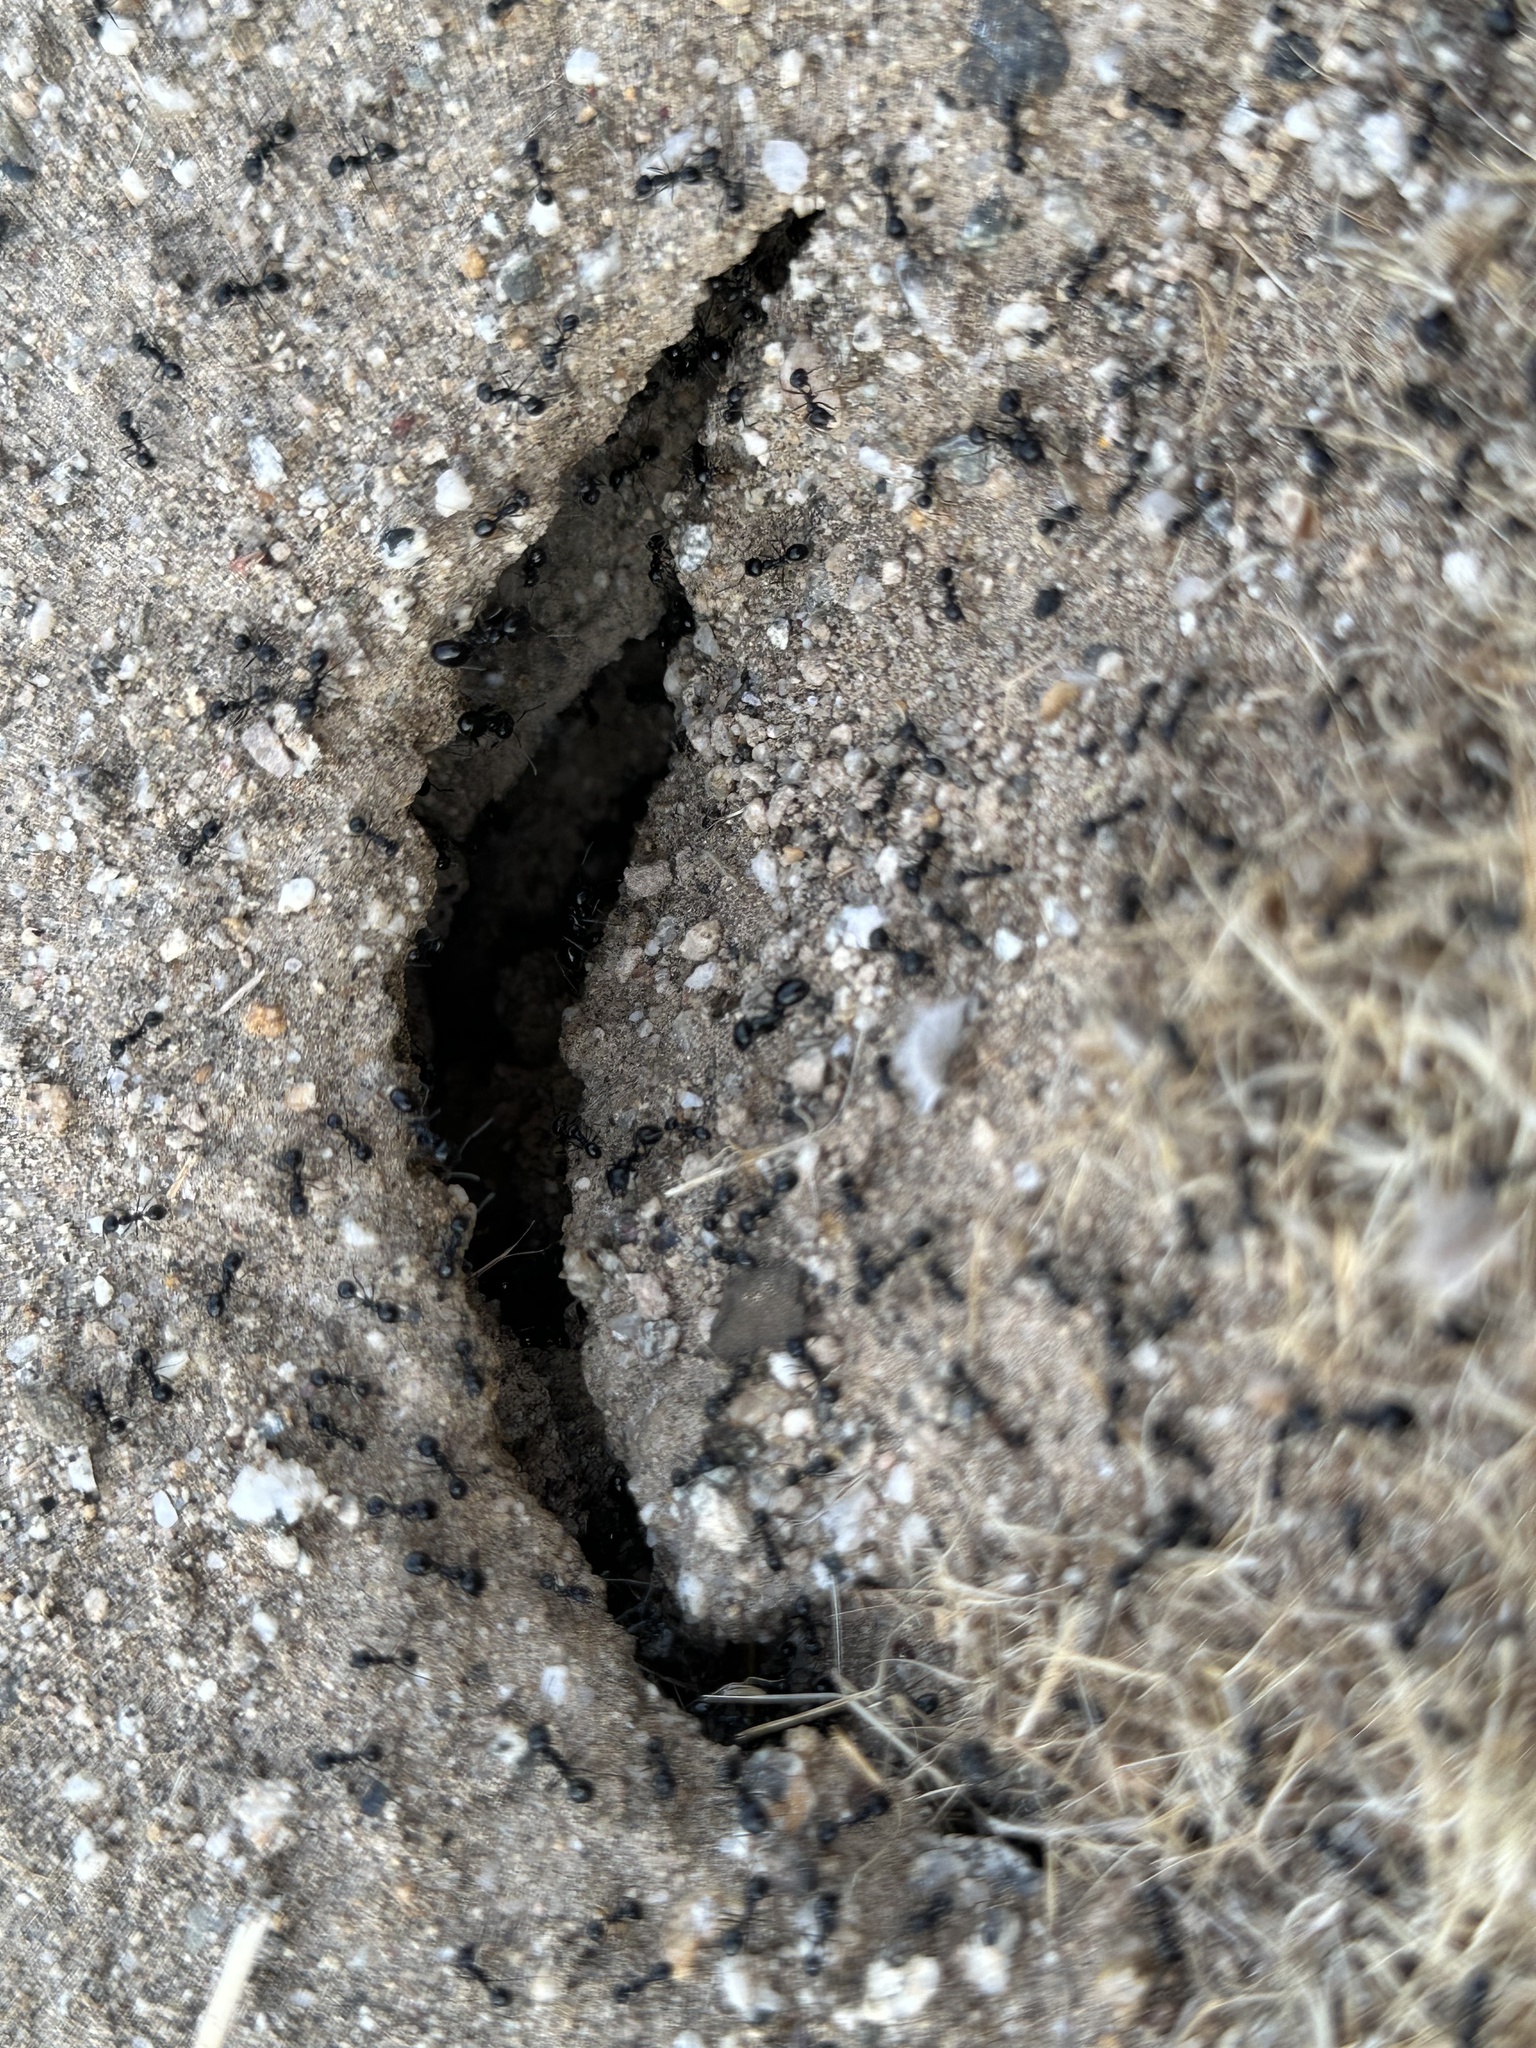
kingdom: Animalia
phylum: Arthropoda
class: Insecta
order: Hymenoptera
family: Formicidae
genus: Messor
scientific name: Messor pergandei
